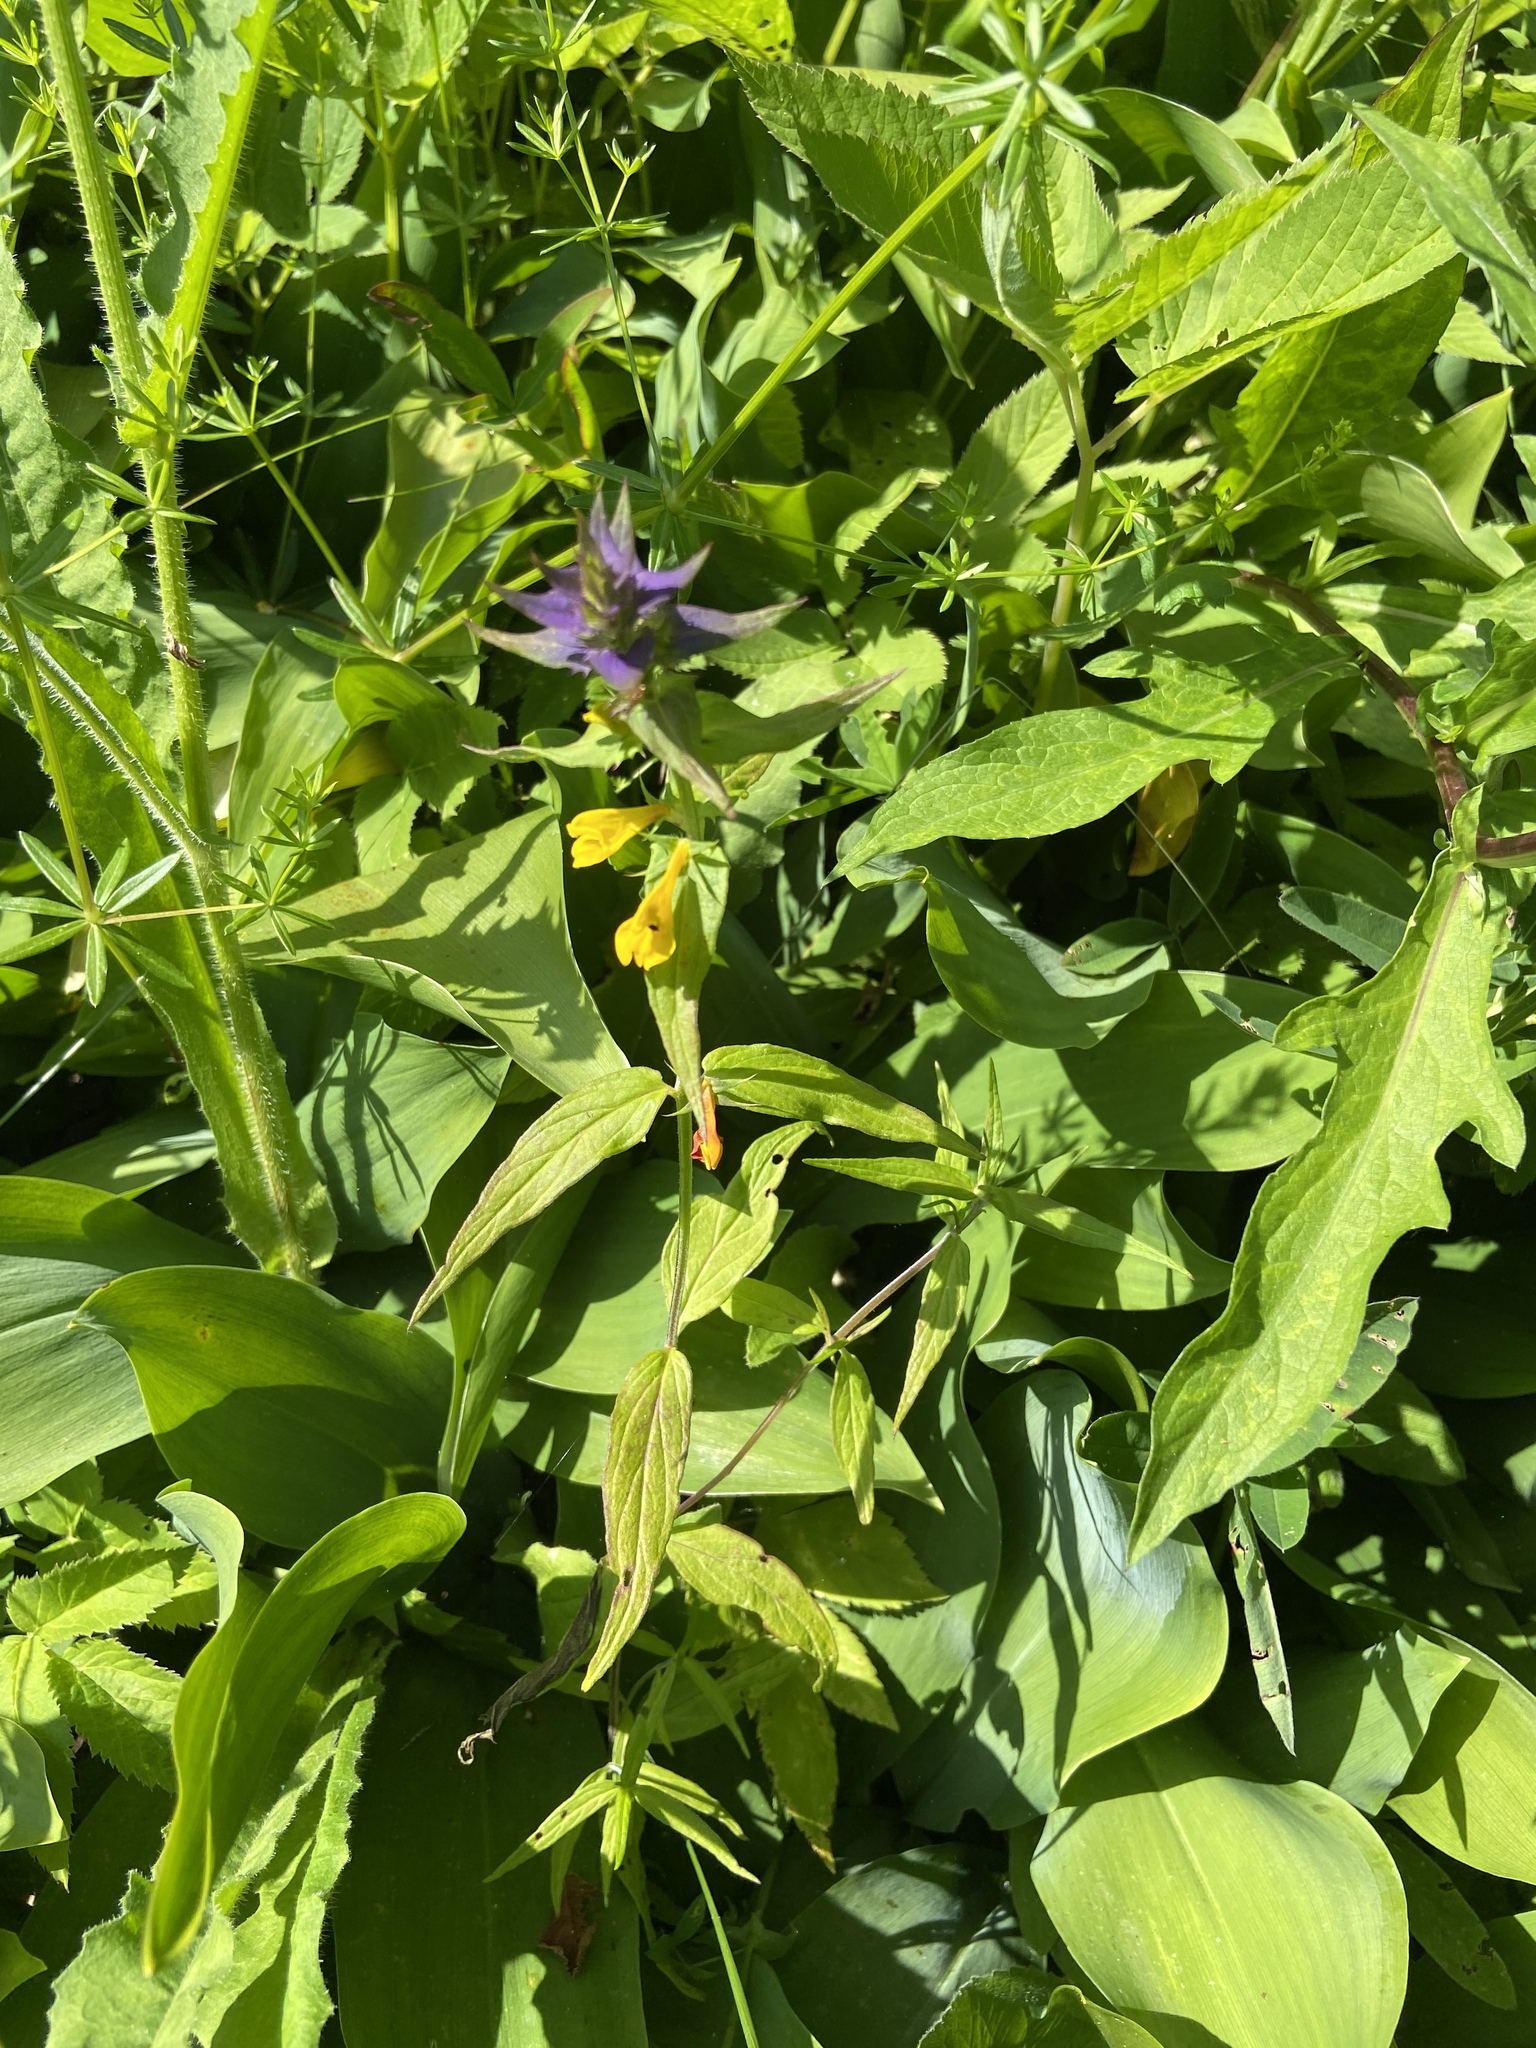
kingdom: Plantae
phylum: Tracheophyta
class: Magnoliopsida
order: Lamiales
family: Orobanchaceae
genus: Melampyrum
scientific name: Melampyrum nemorosum
